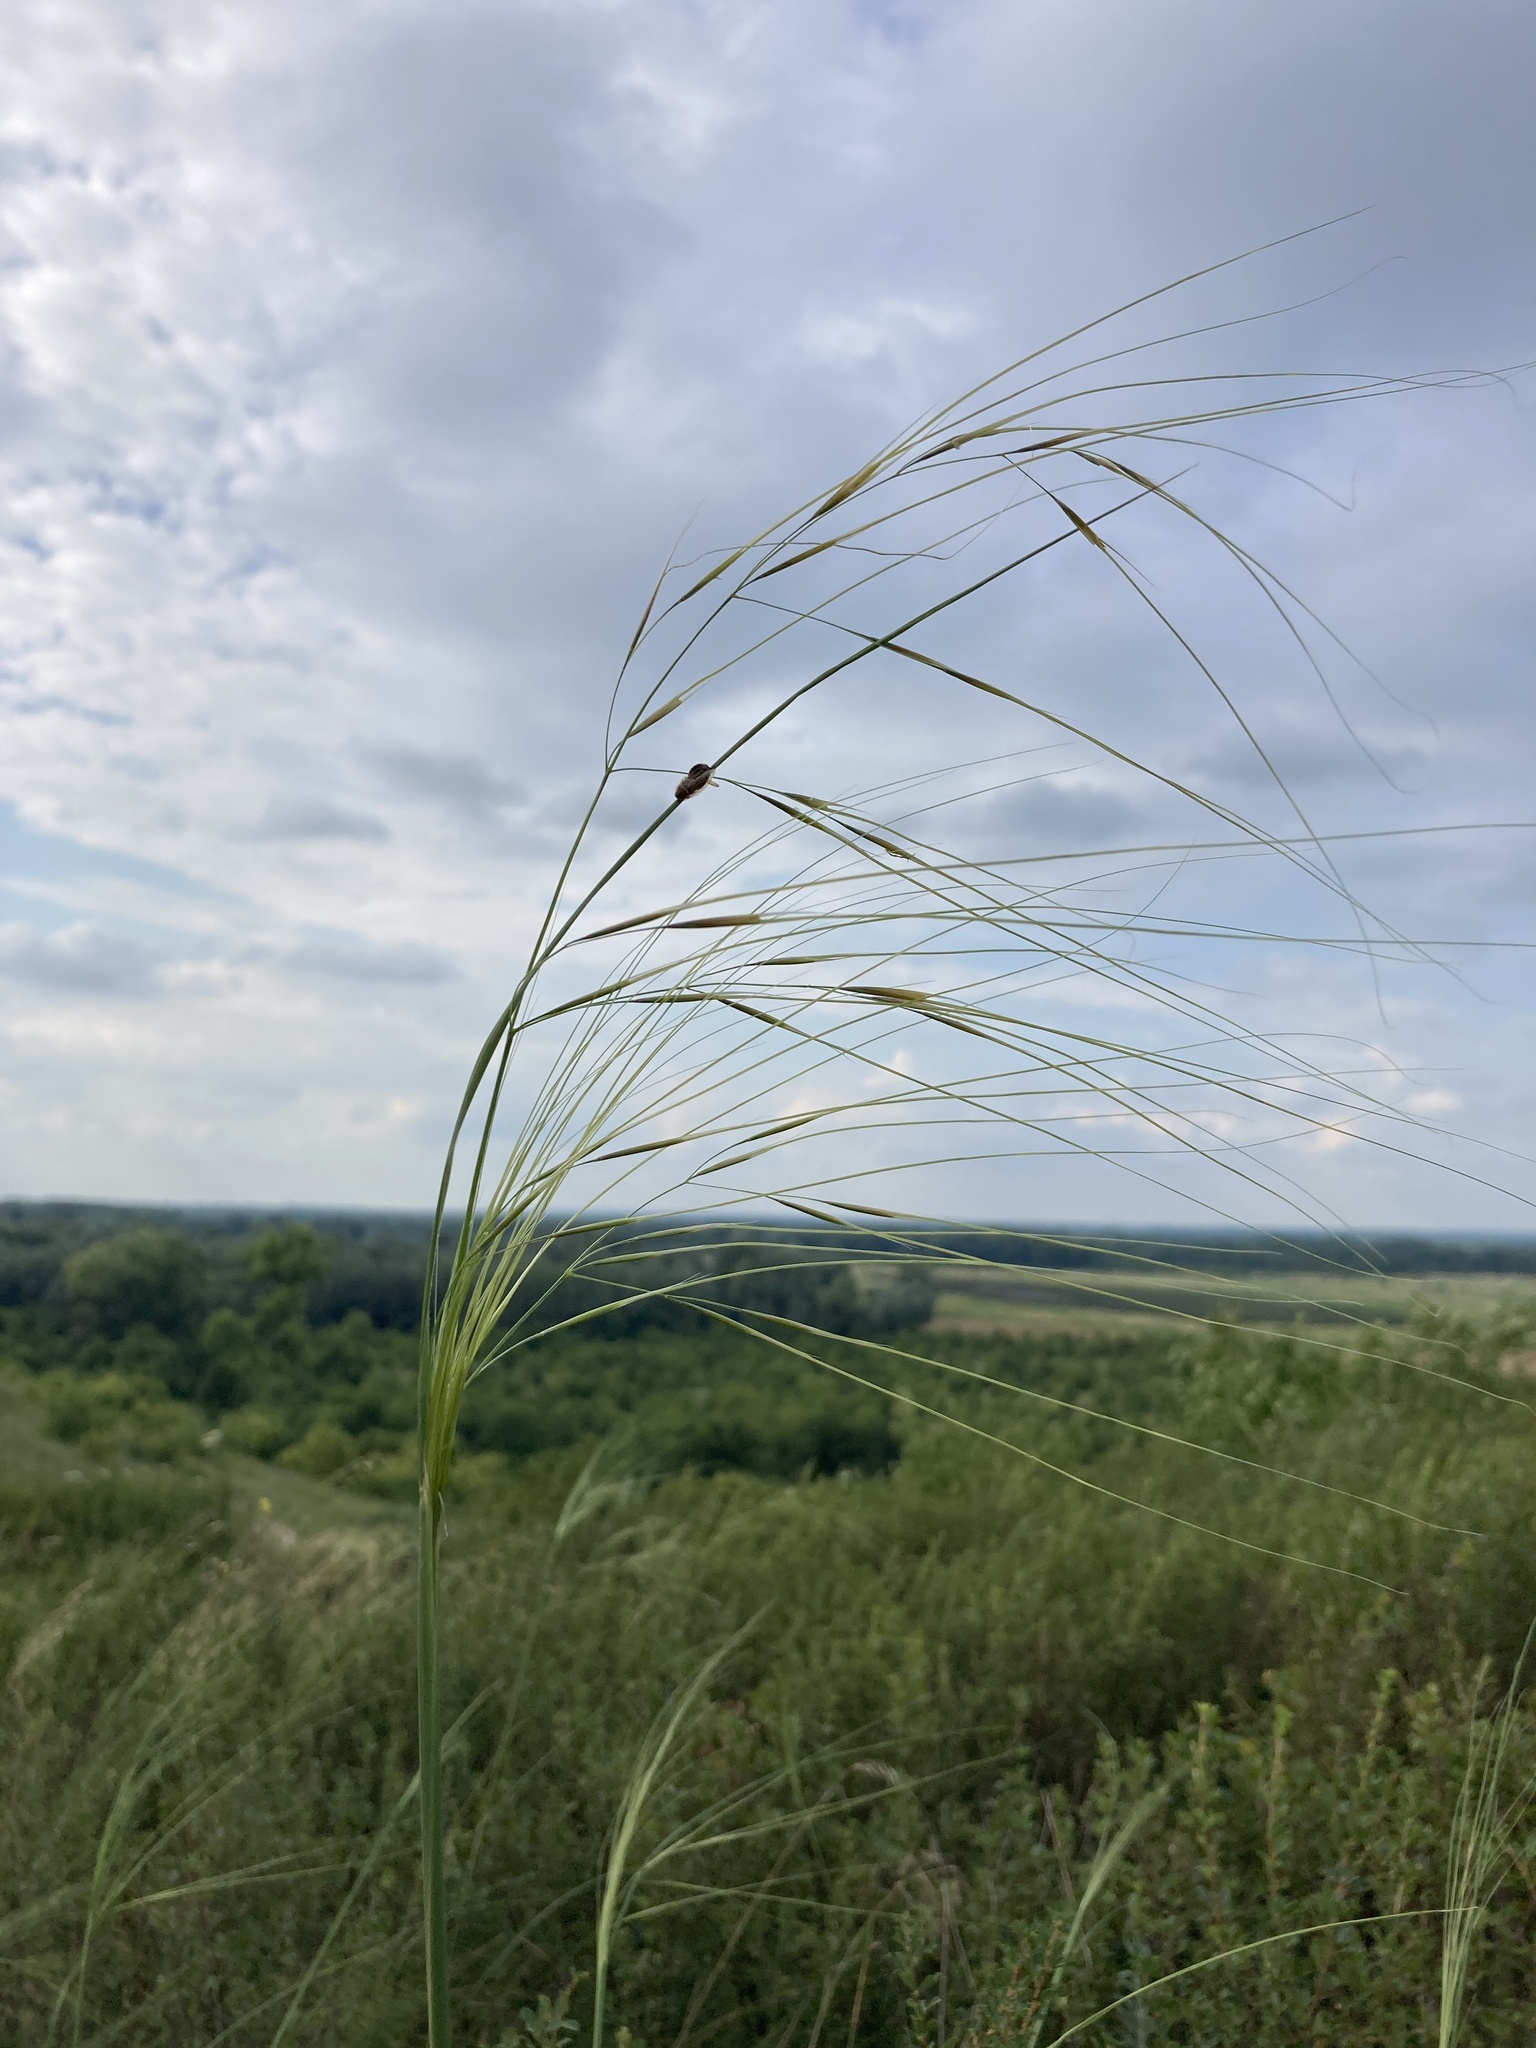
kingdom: Plantae
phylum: Tracheophyta
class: Liliopsida
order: Poales
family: Poaceae
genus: Stipa
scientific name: Stipa capillata
